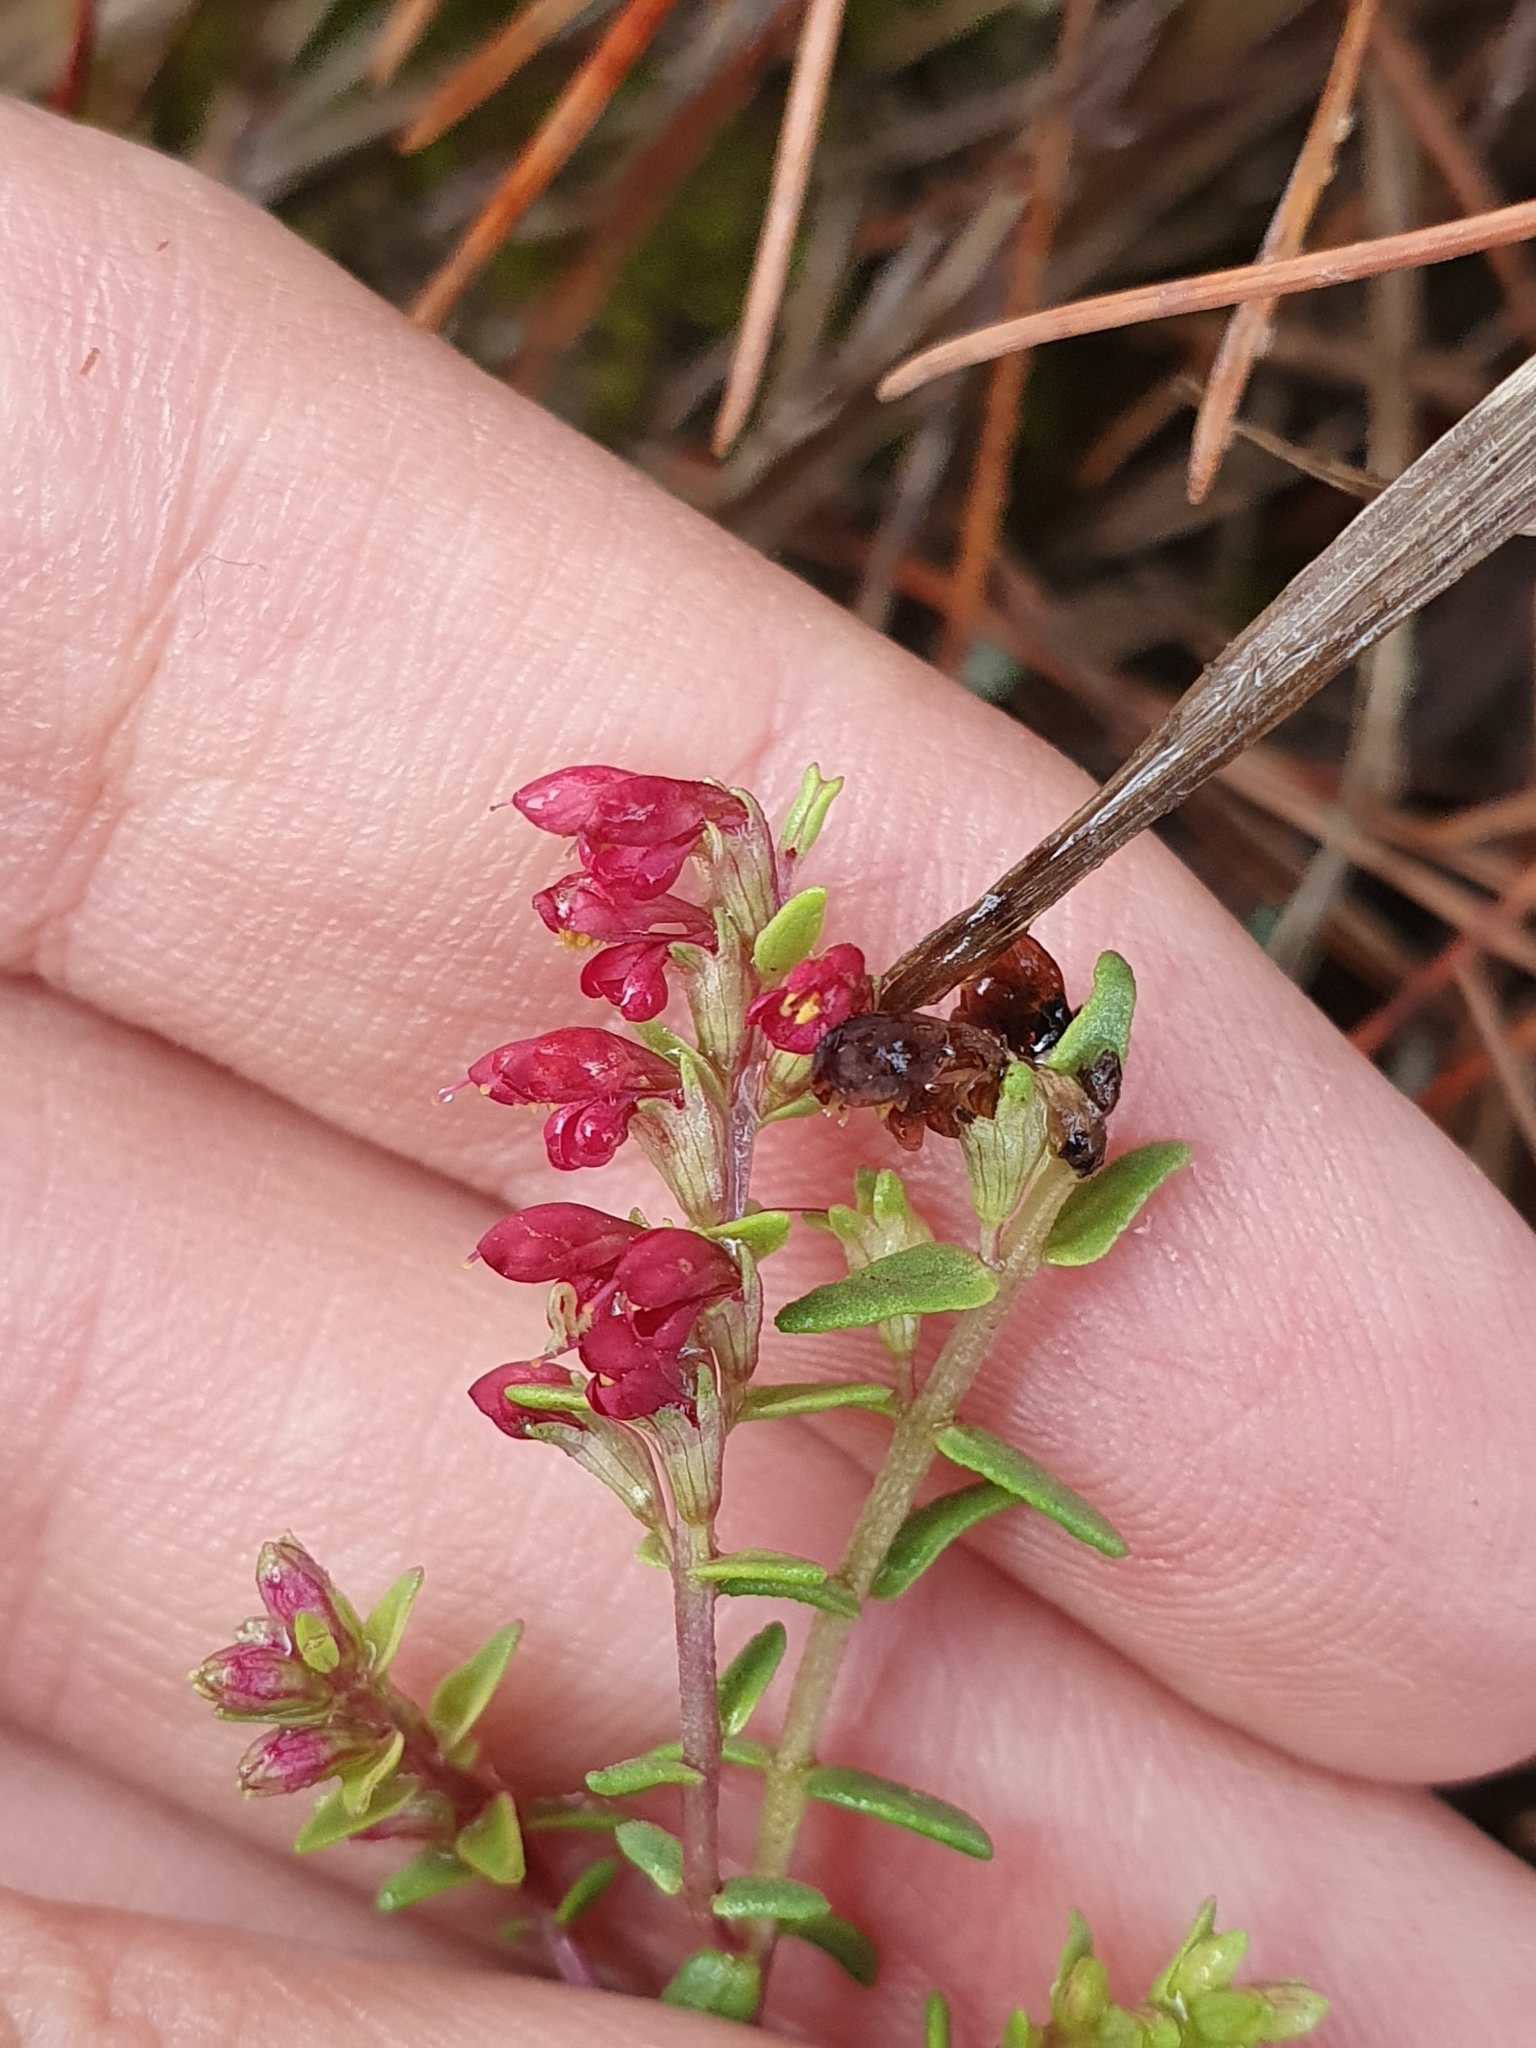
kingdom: Plantae
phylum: Tracheophyta
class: Magnoliopsida
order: Lamiales
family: Orobanchaceae
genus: Odontites
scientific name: Odontites bolligeri
